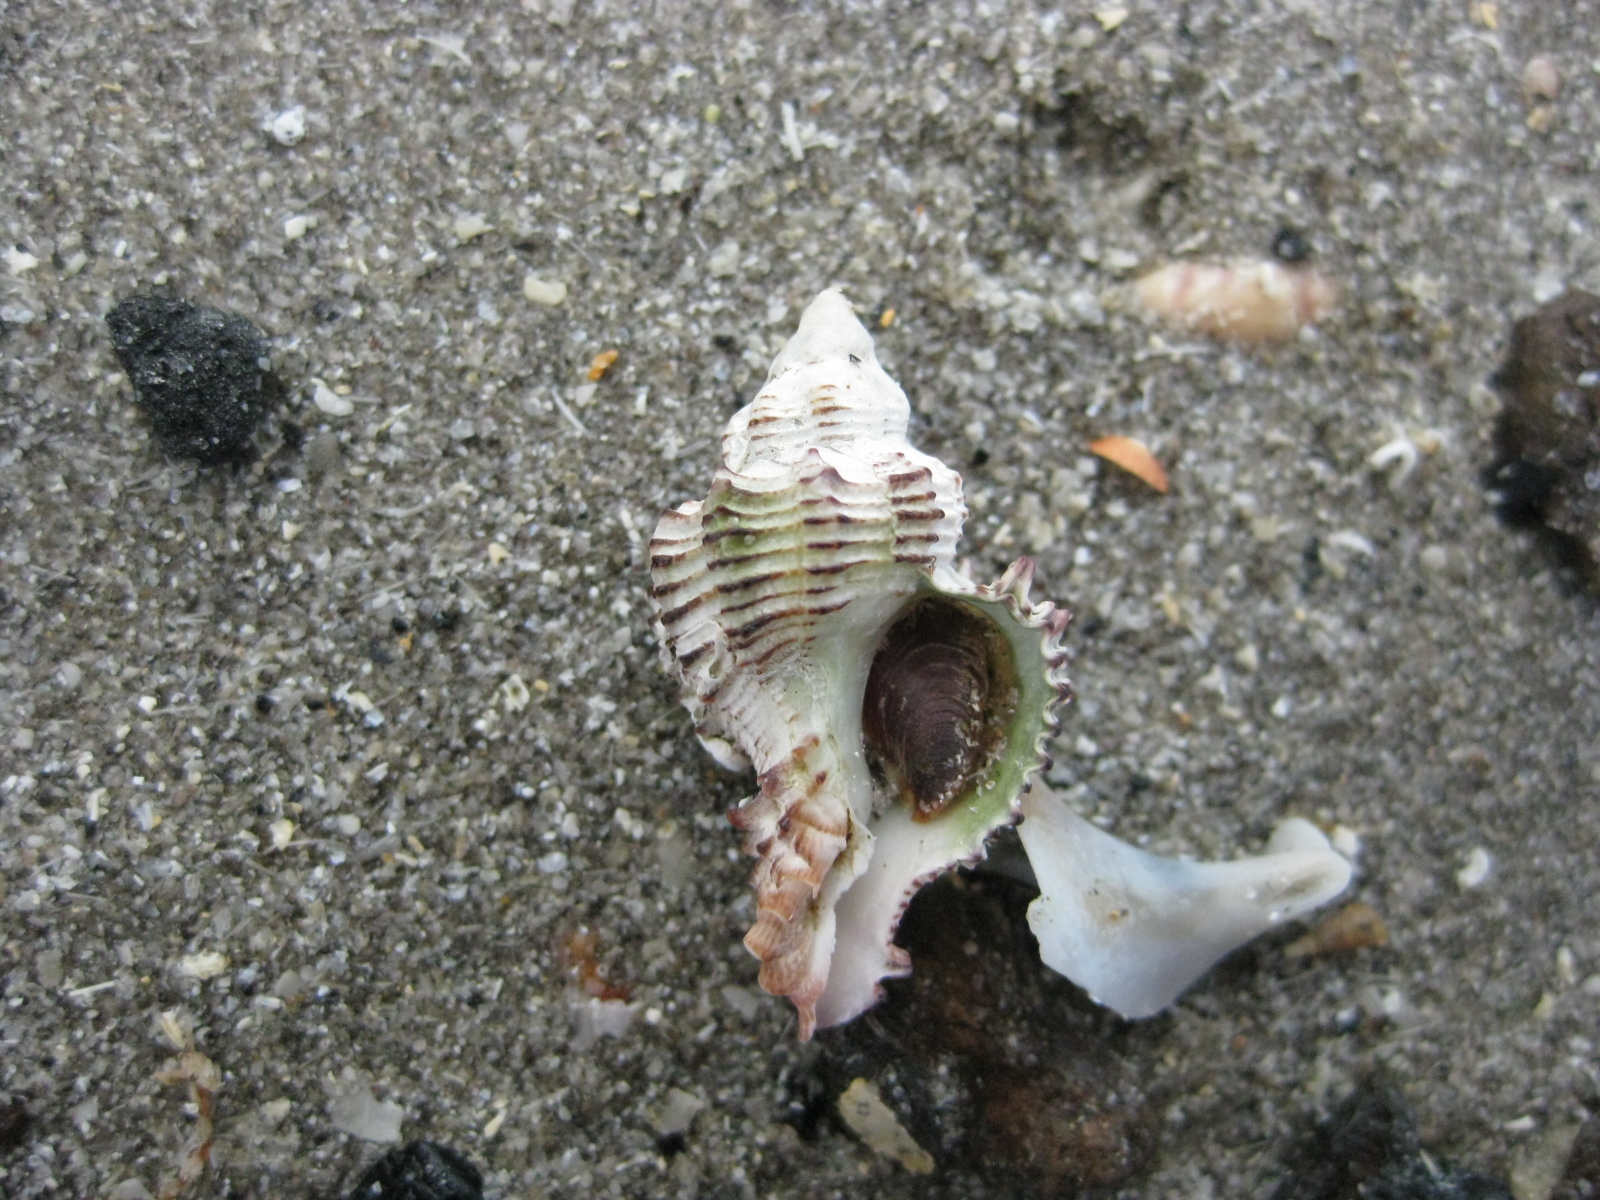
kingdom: Animalia
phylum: Mollusca
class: Gastropoda
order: Neogastropoda
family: Muricidae
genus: Murexsul
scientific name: Murexsul octogonus
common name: Octagon murex
